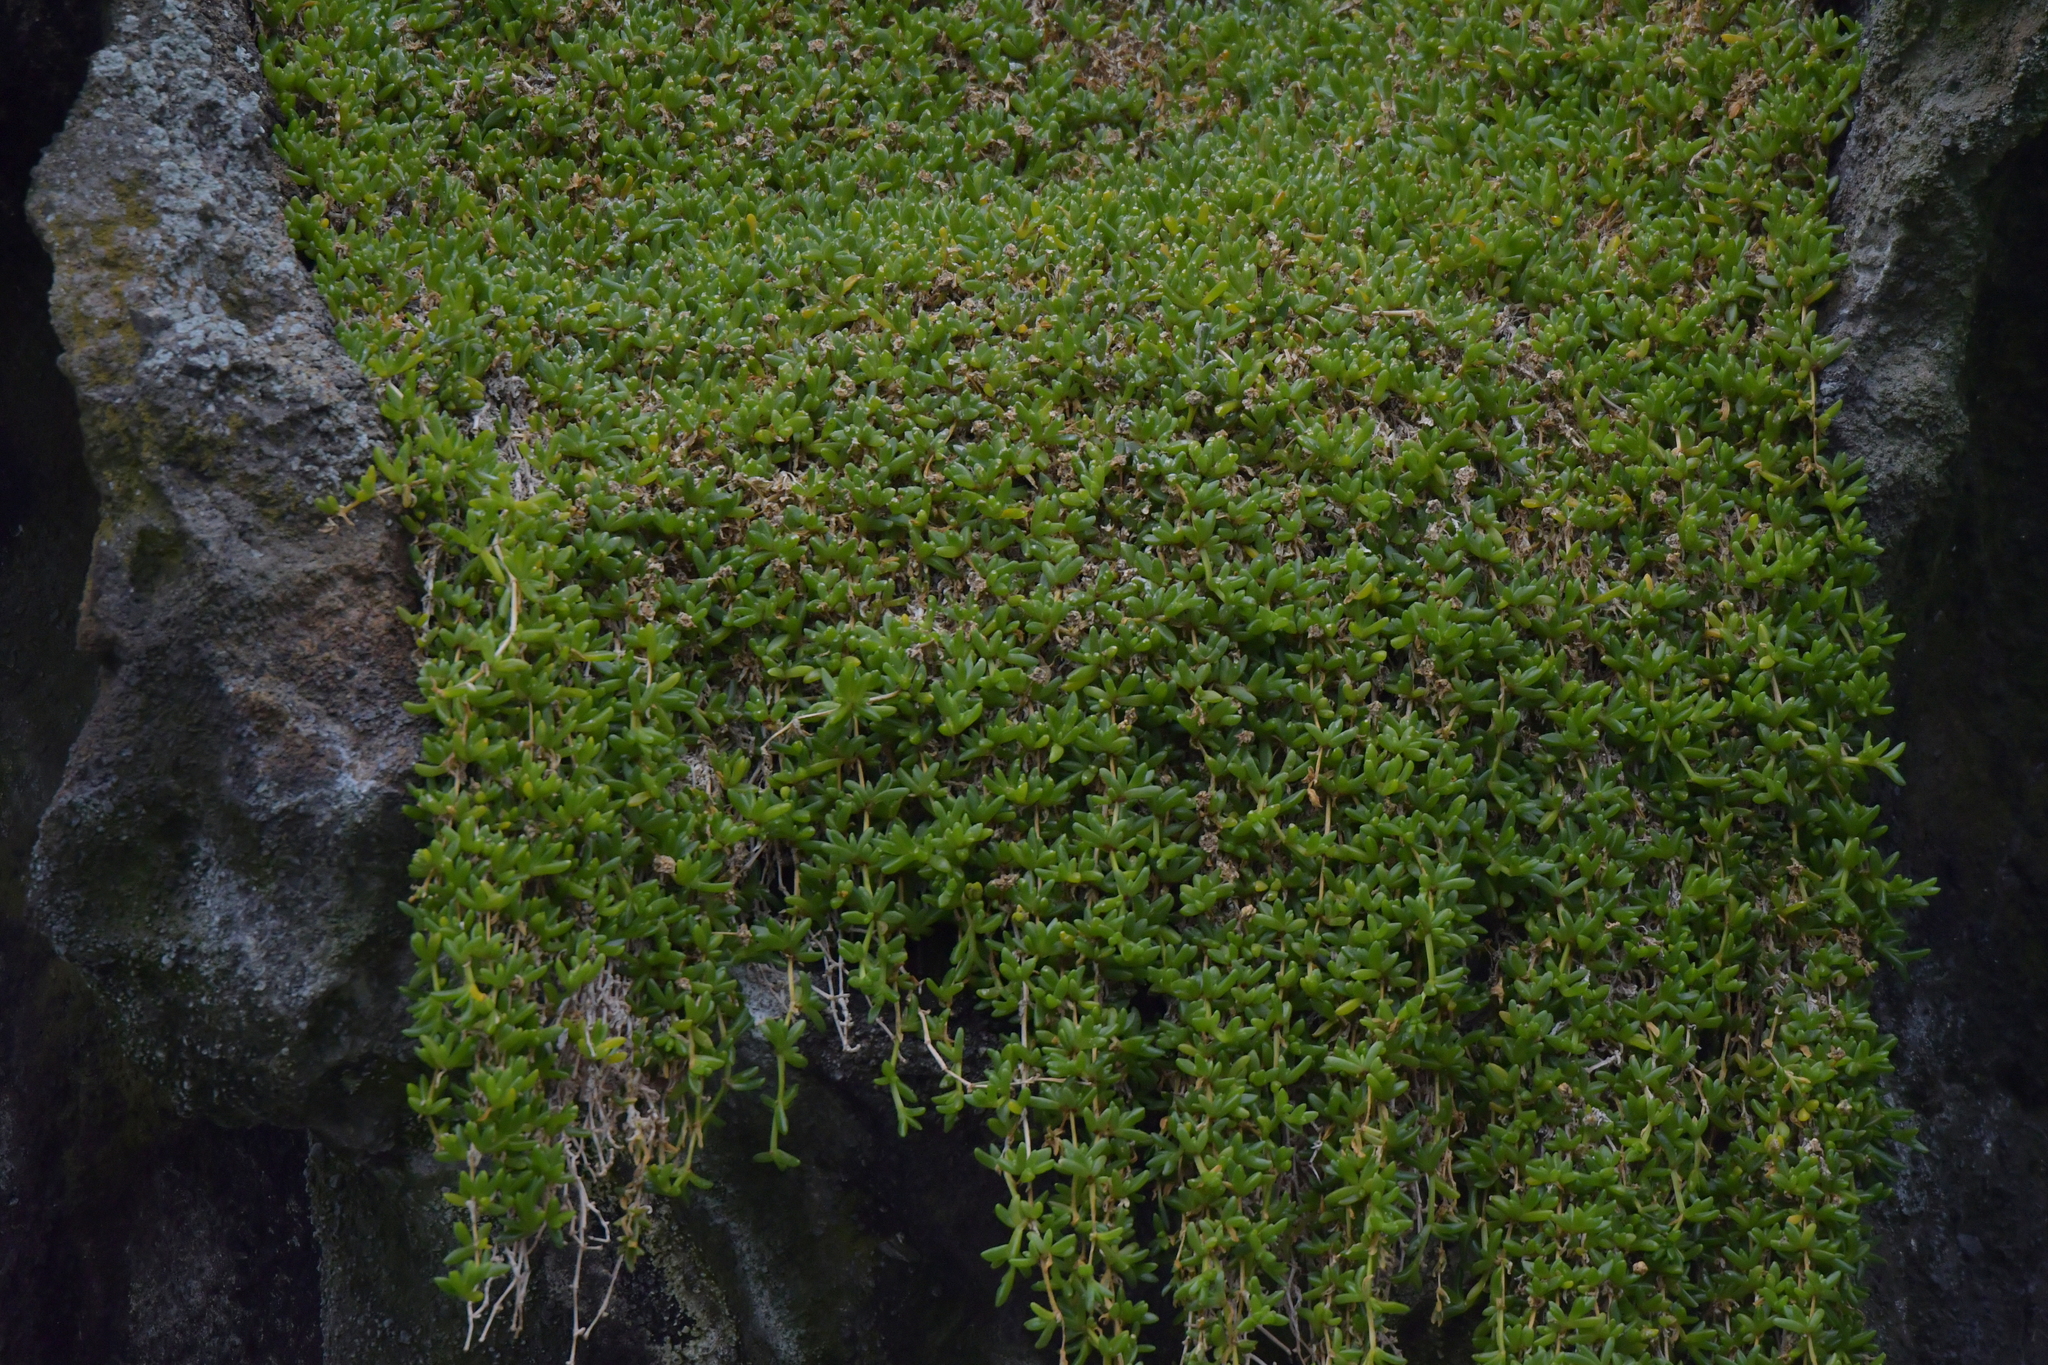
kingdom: Plantae
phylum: Tracheophyta
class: Magnoliopsida
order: Caryophyllales
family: Aizoaceae
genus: Disphyma
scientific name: Disphyma papillatum
